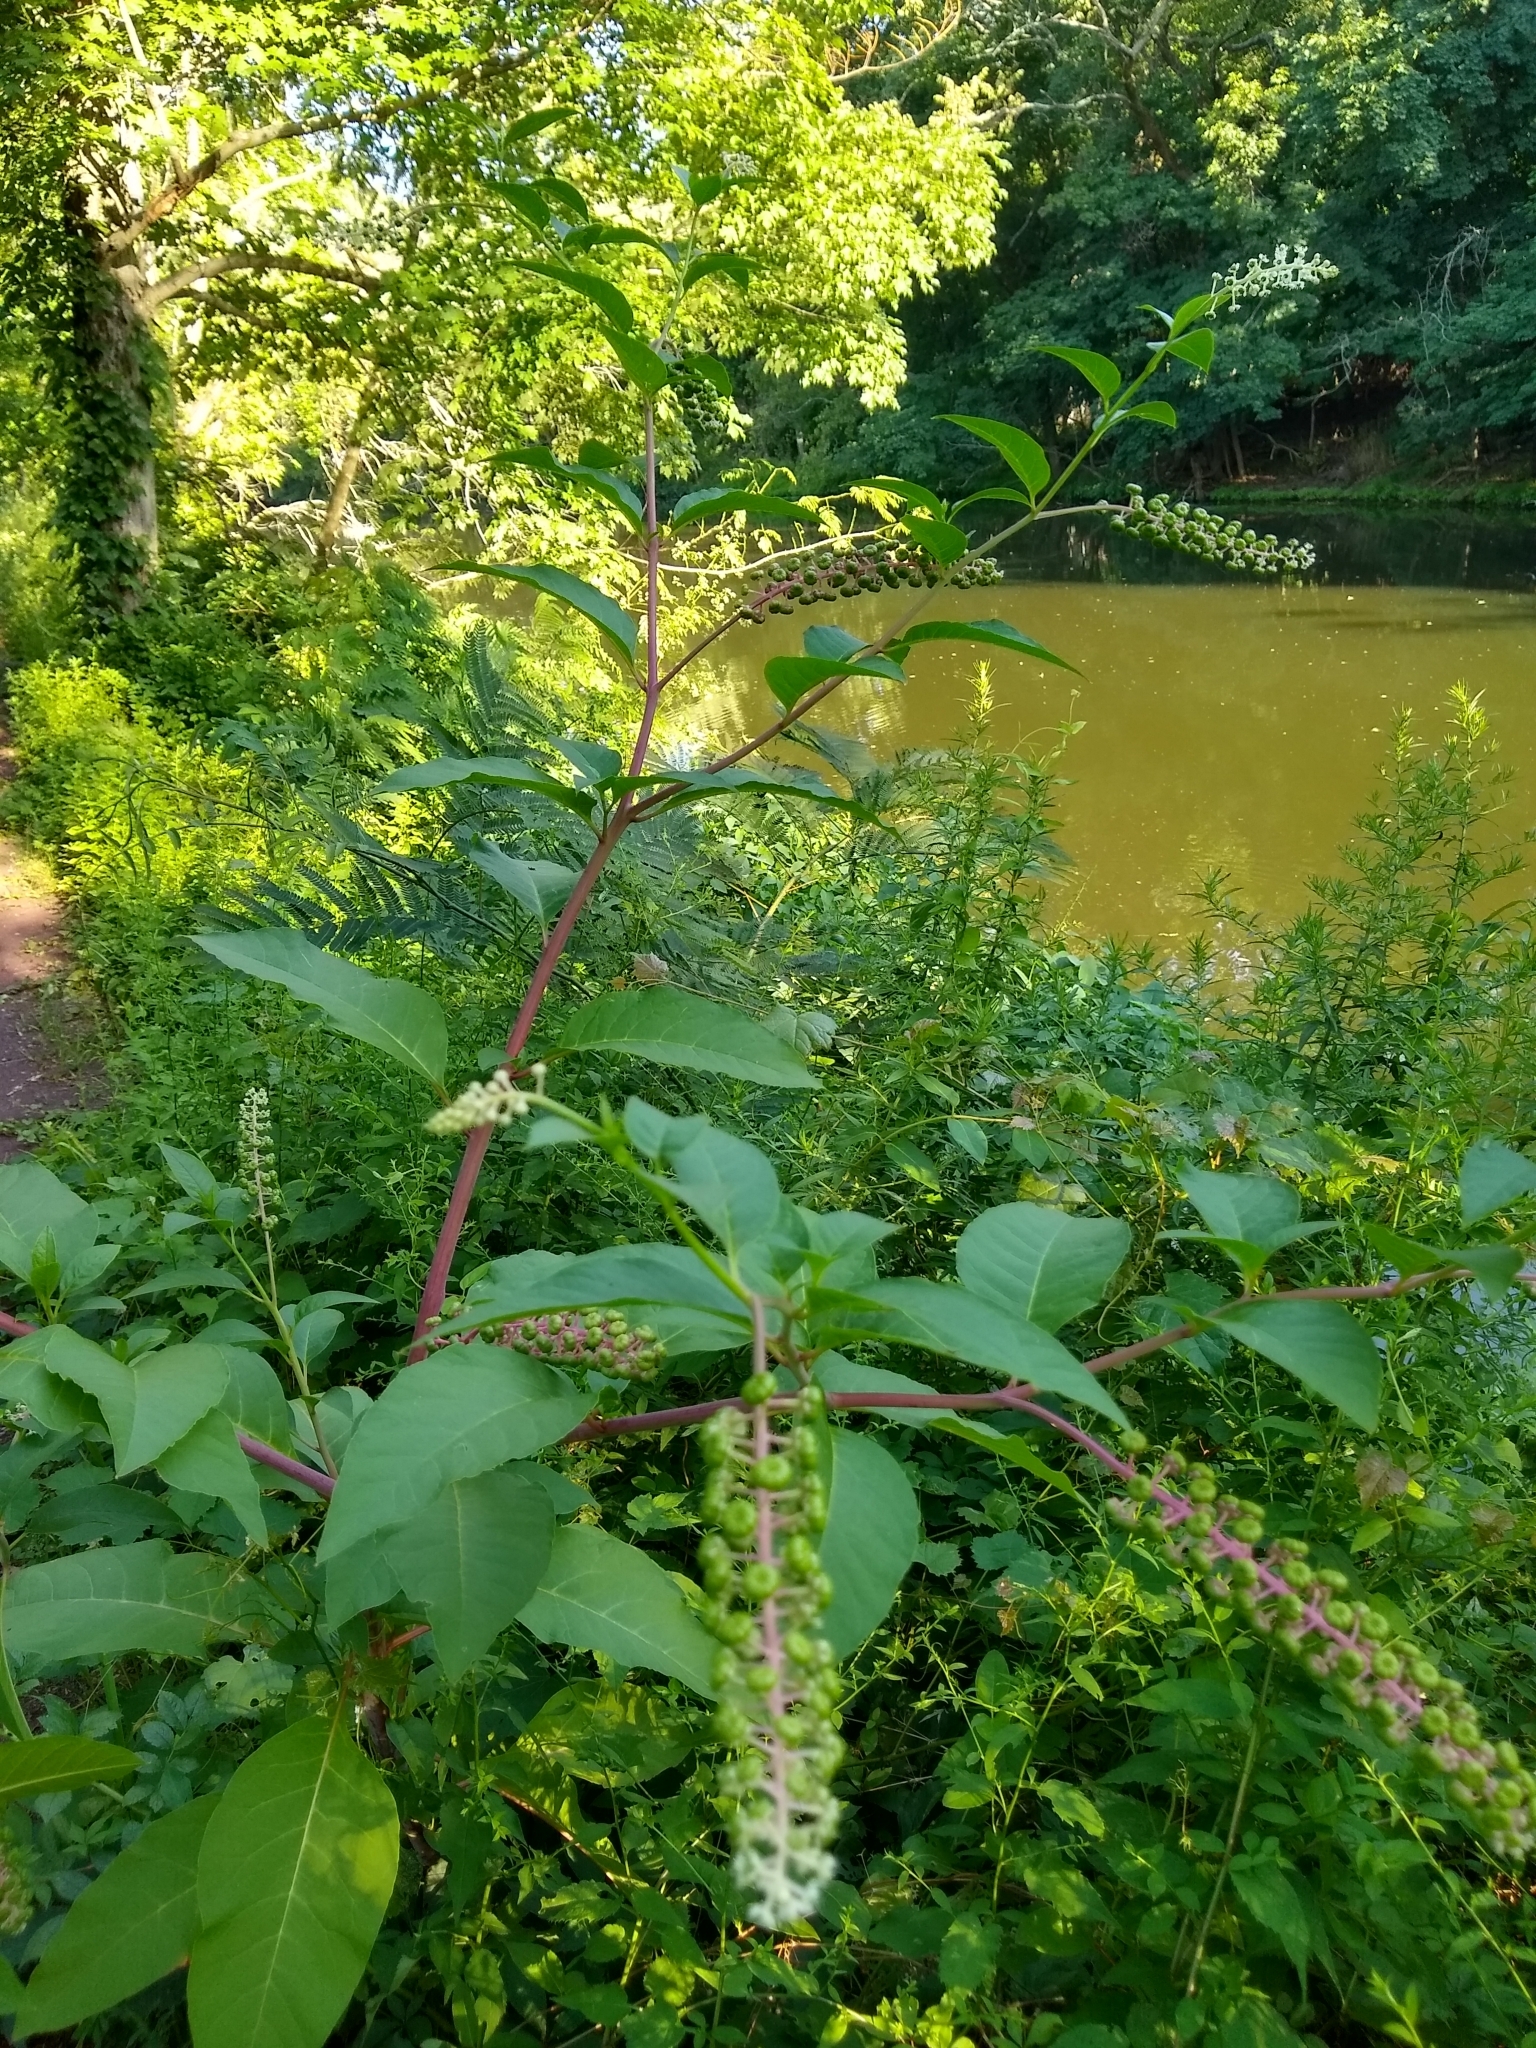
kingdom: Plantae
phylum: Tracheophyta
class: Magnoliopsida
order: Caryophyllales
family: Phytolaccaceae
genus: Phytolacca
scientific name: Phytolacca americana
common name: American pokeweed
